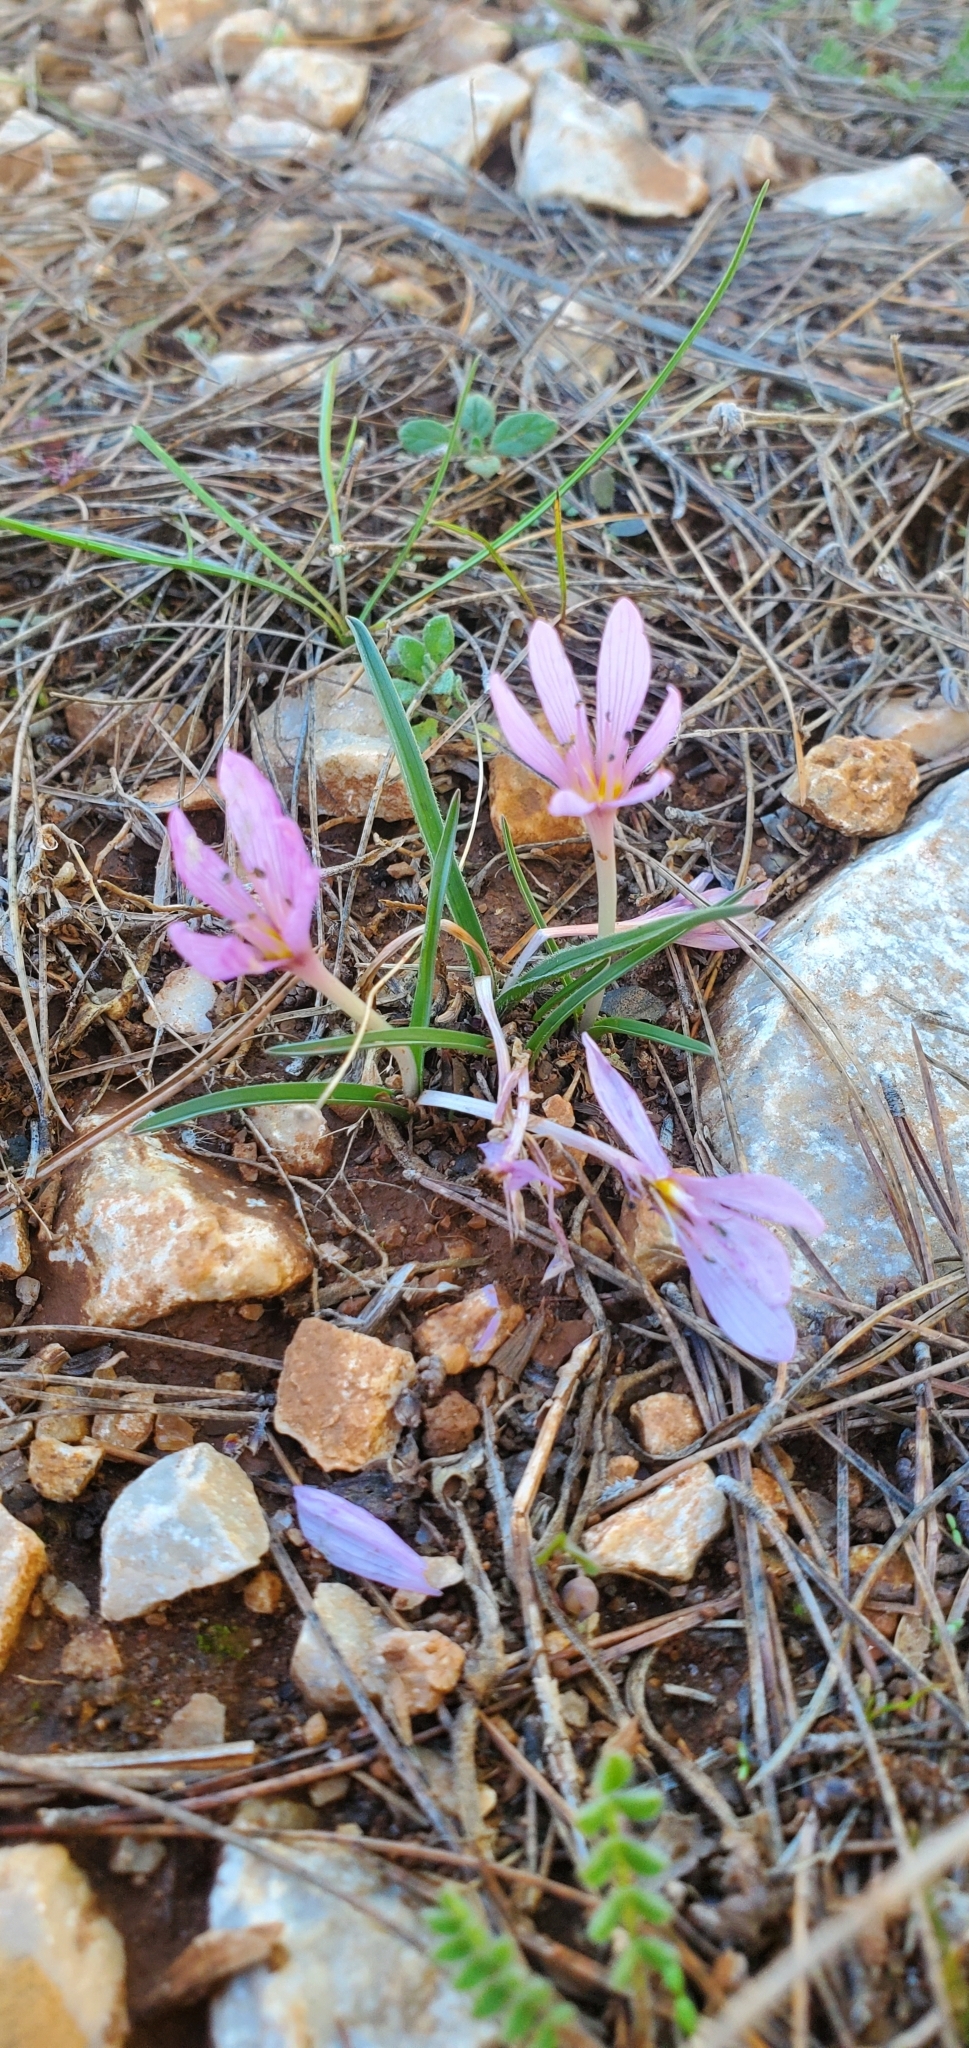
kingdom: Plantae
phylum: Tracheophyta
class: Liliopsida
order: Liliales
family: Colchicaceae
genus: Colchicum
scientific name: Colchicum cupanii
